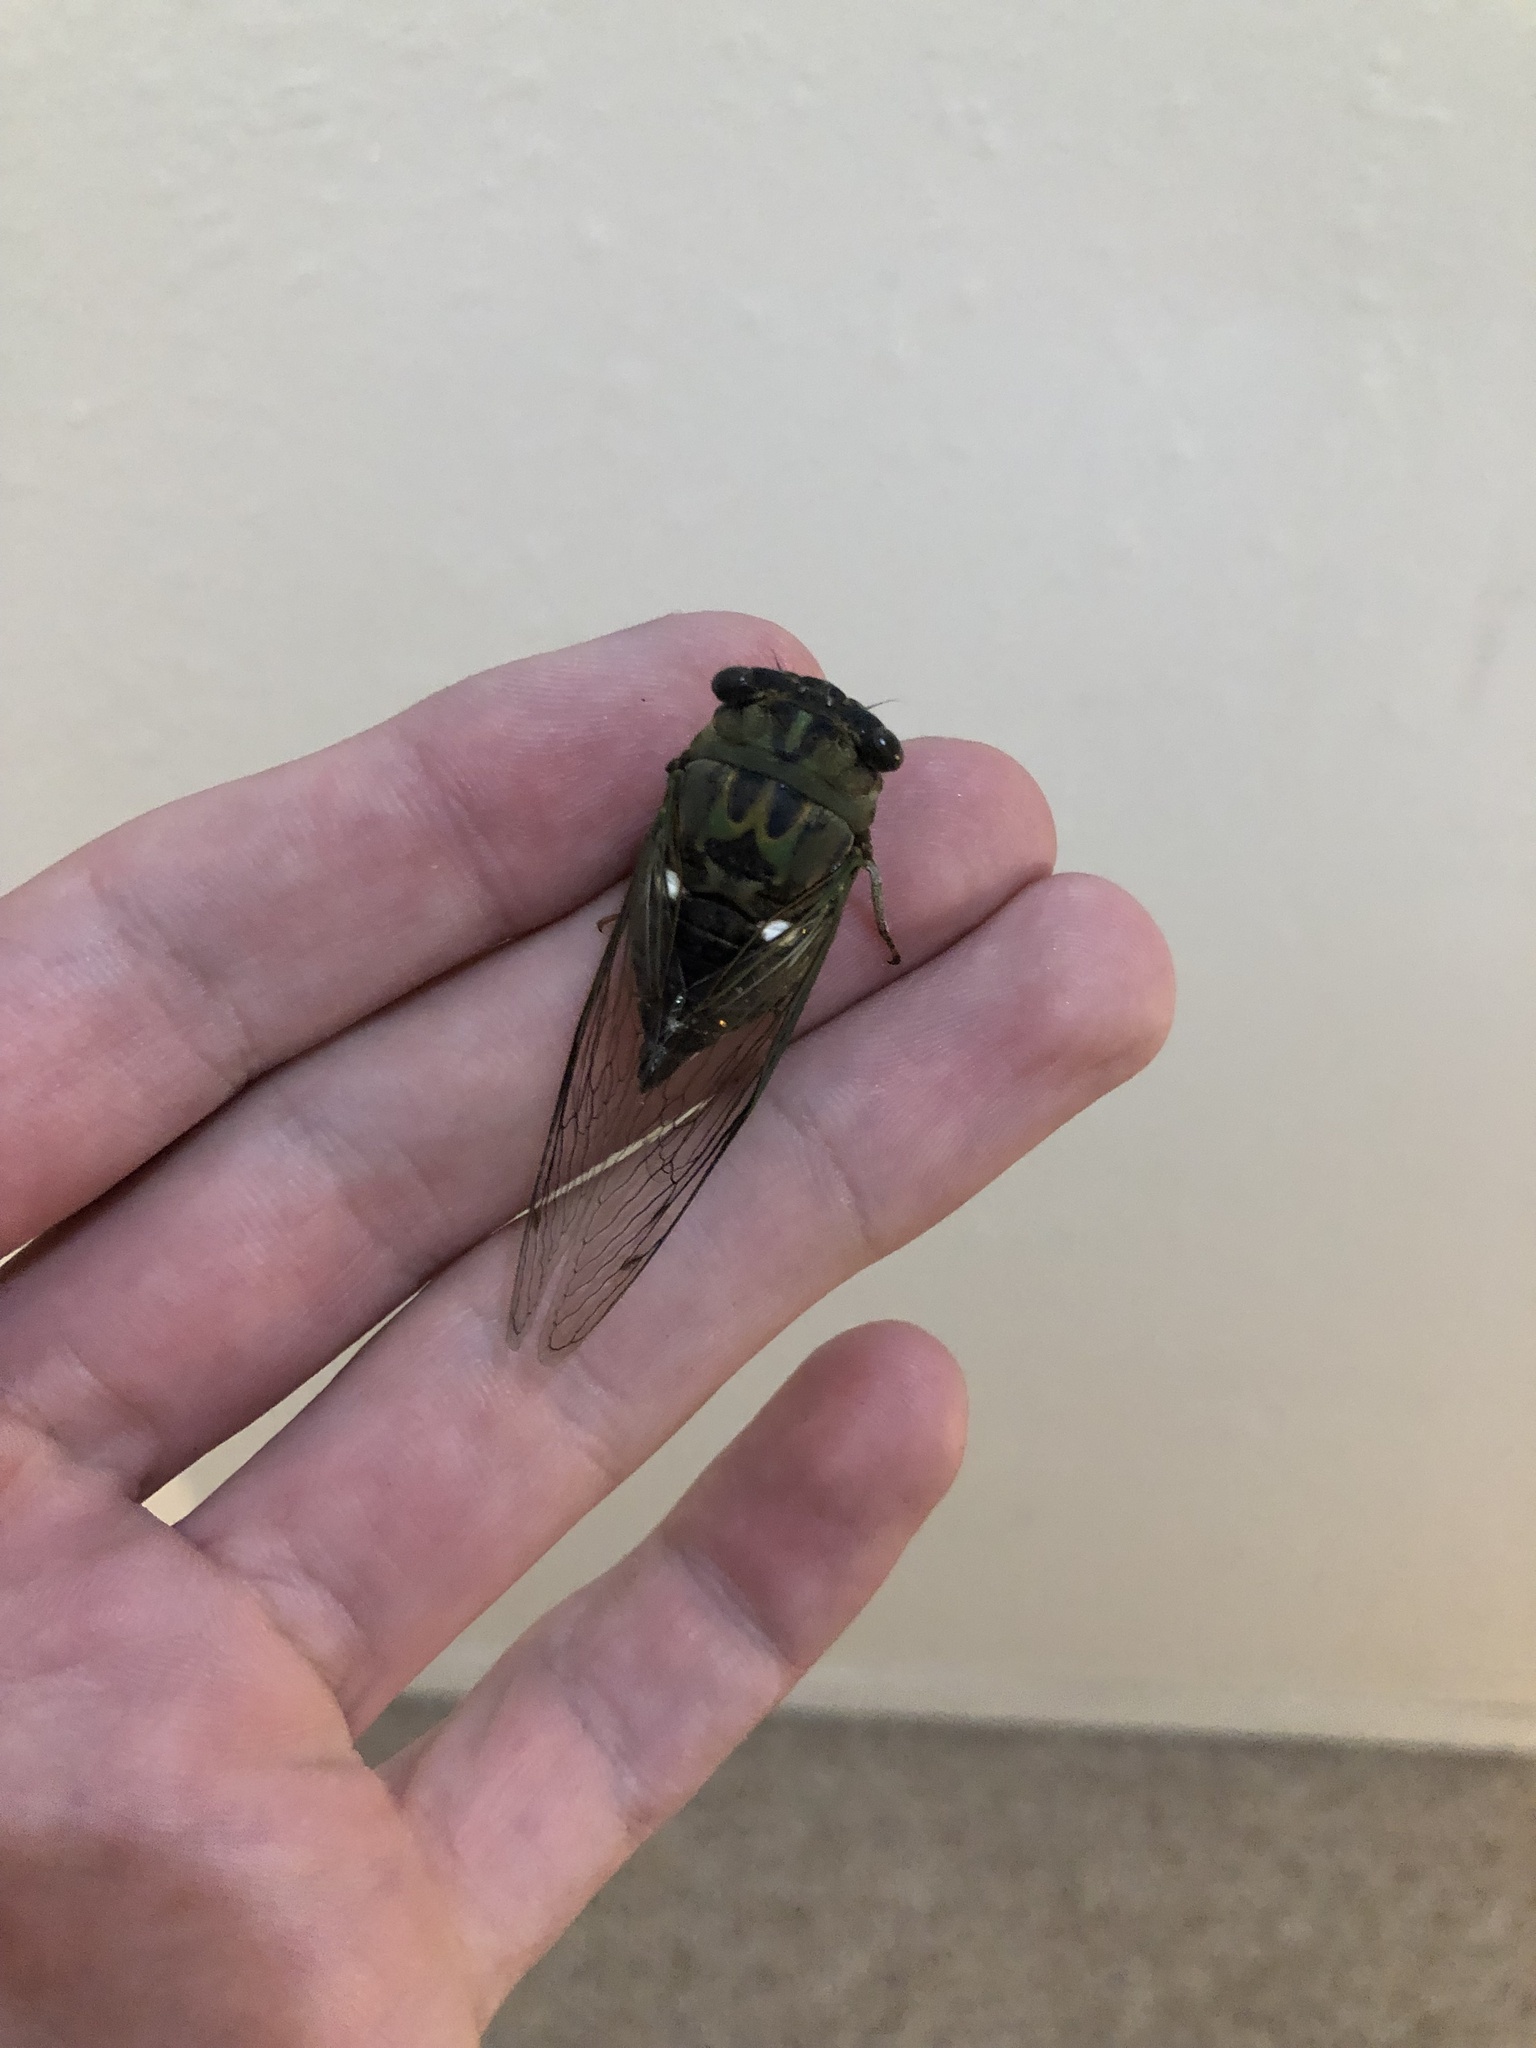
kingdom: Animalia
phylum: Arthropoda
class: Insecta
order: Hemiptera
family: Cicadidae
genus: Neotibicen
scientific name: Neotibicen pruinosus
